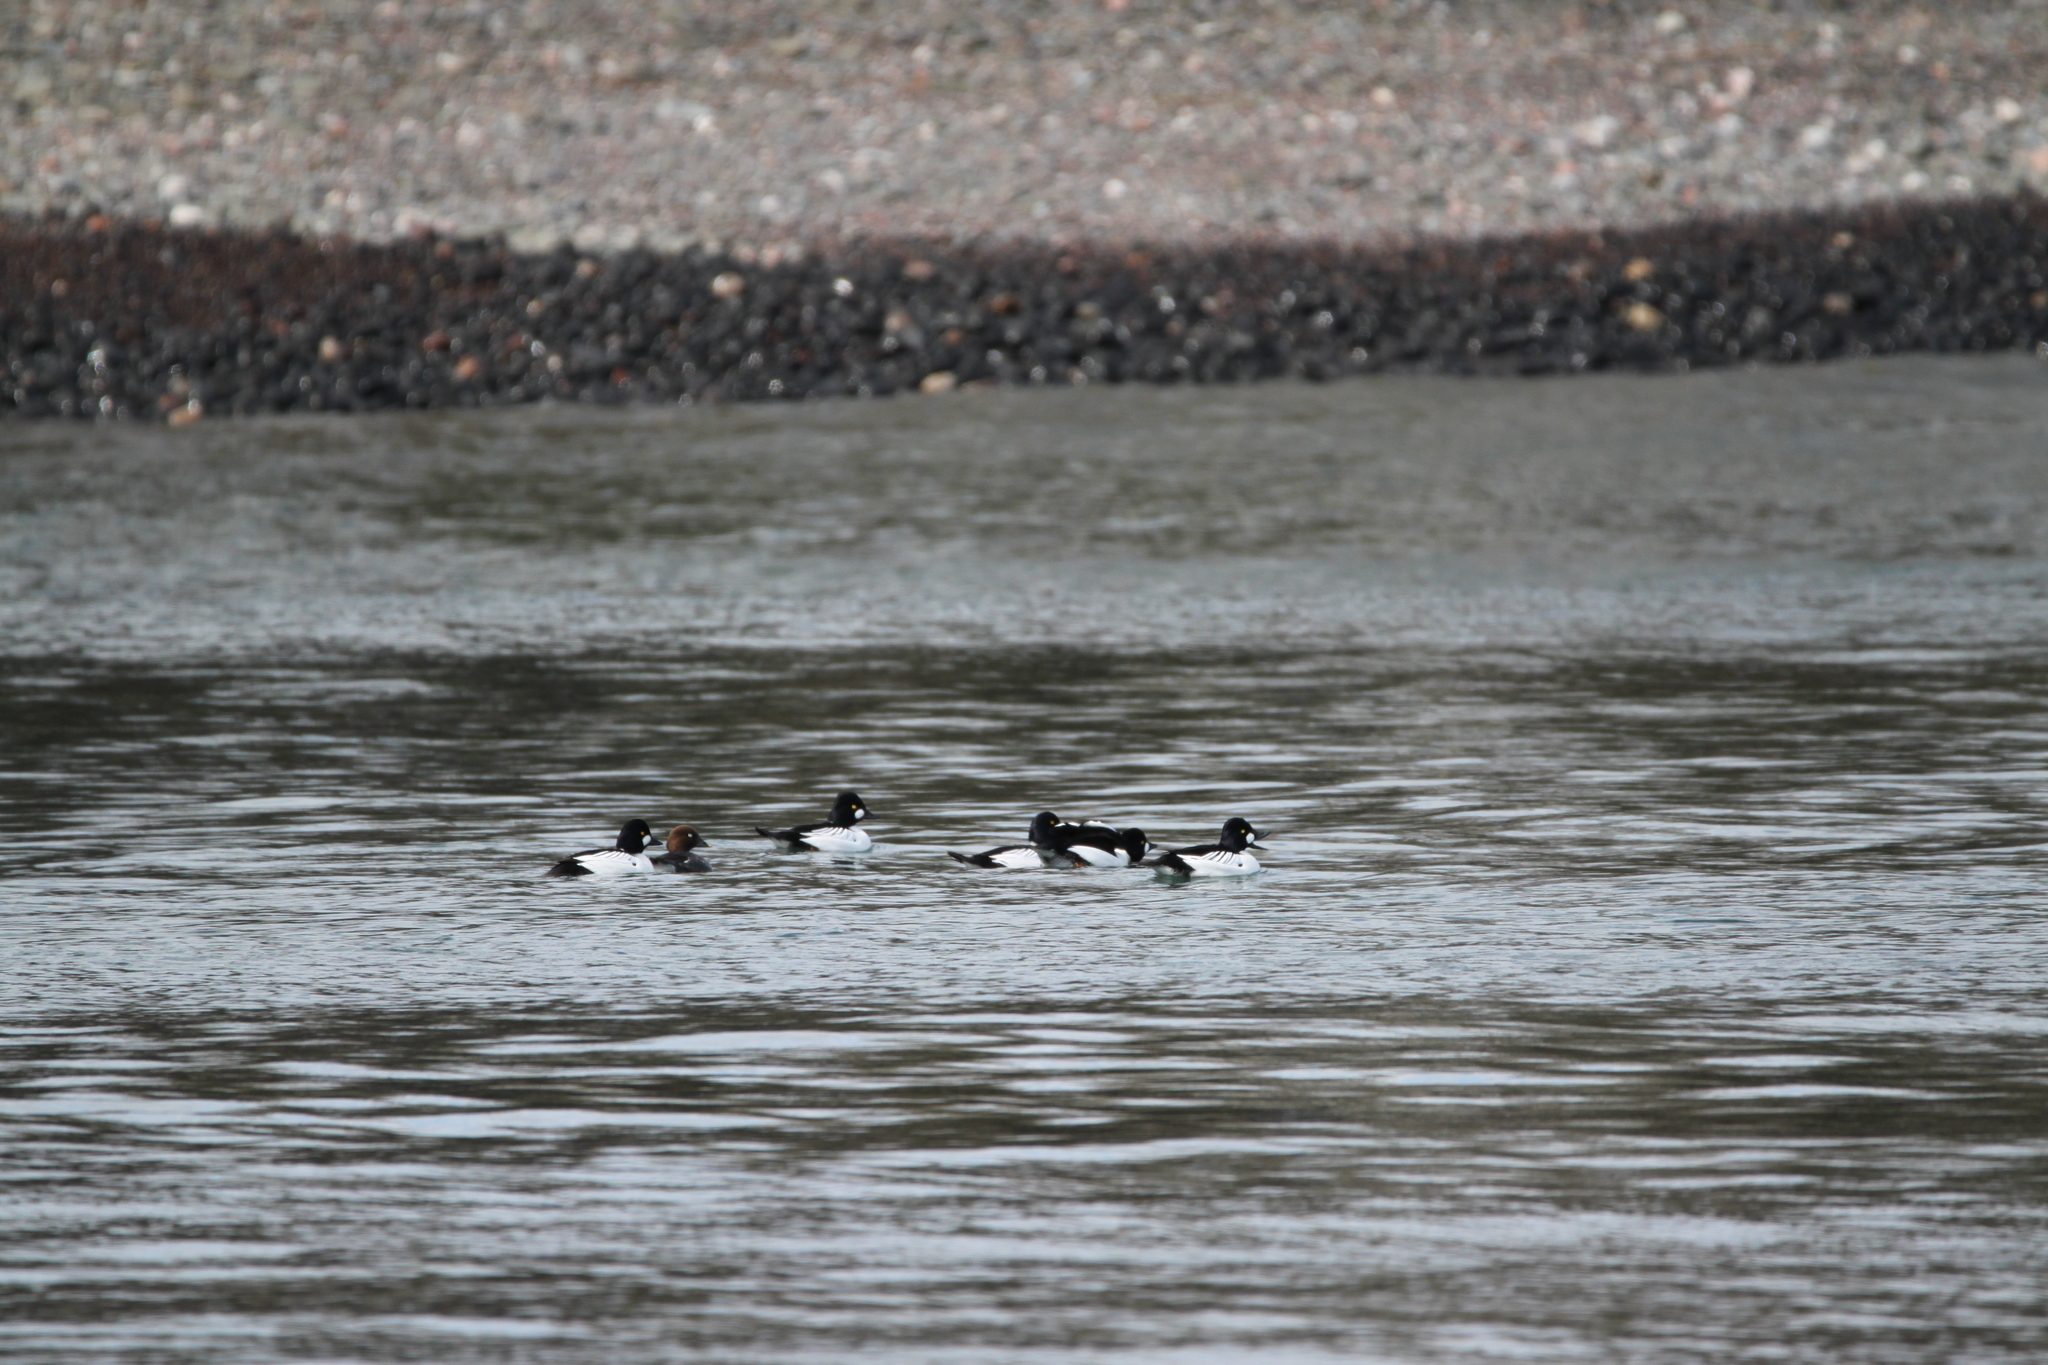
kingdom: Animalia
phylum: Chordata
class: Aves
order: Anseriformes
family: Anatidae
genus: Bucephala
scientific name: Bucephala clangula
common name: Common goldeneye
